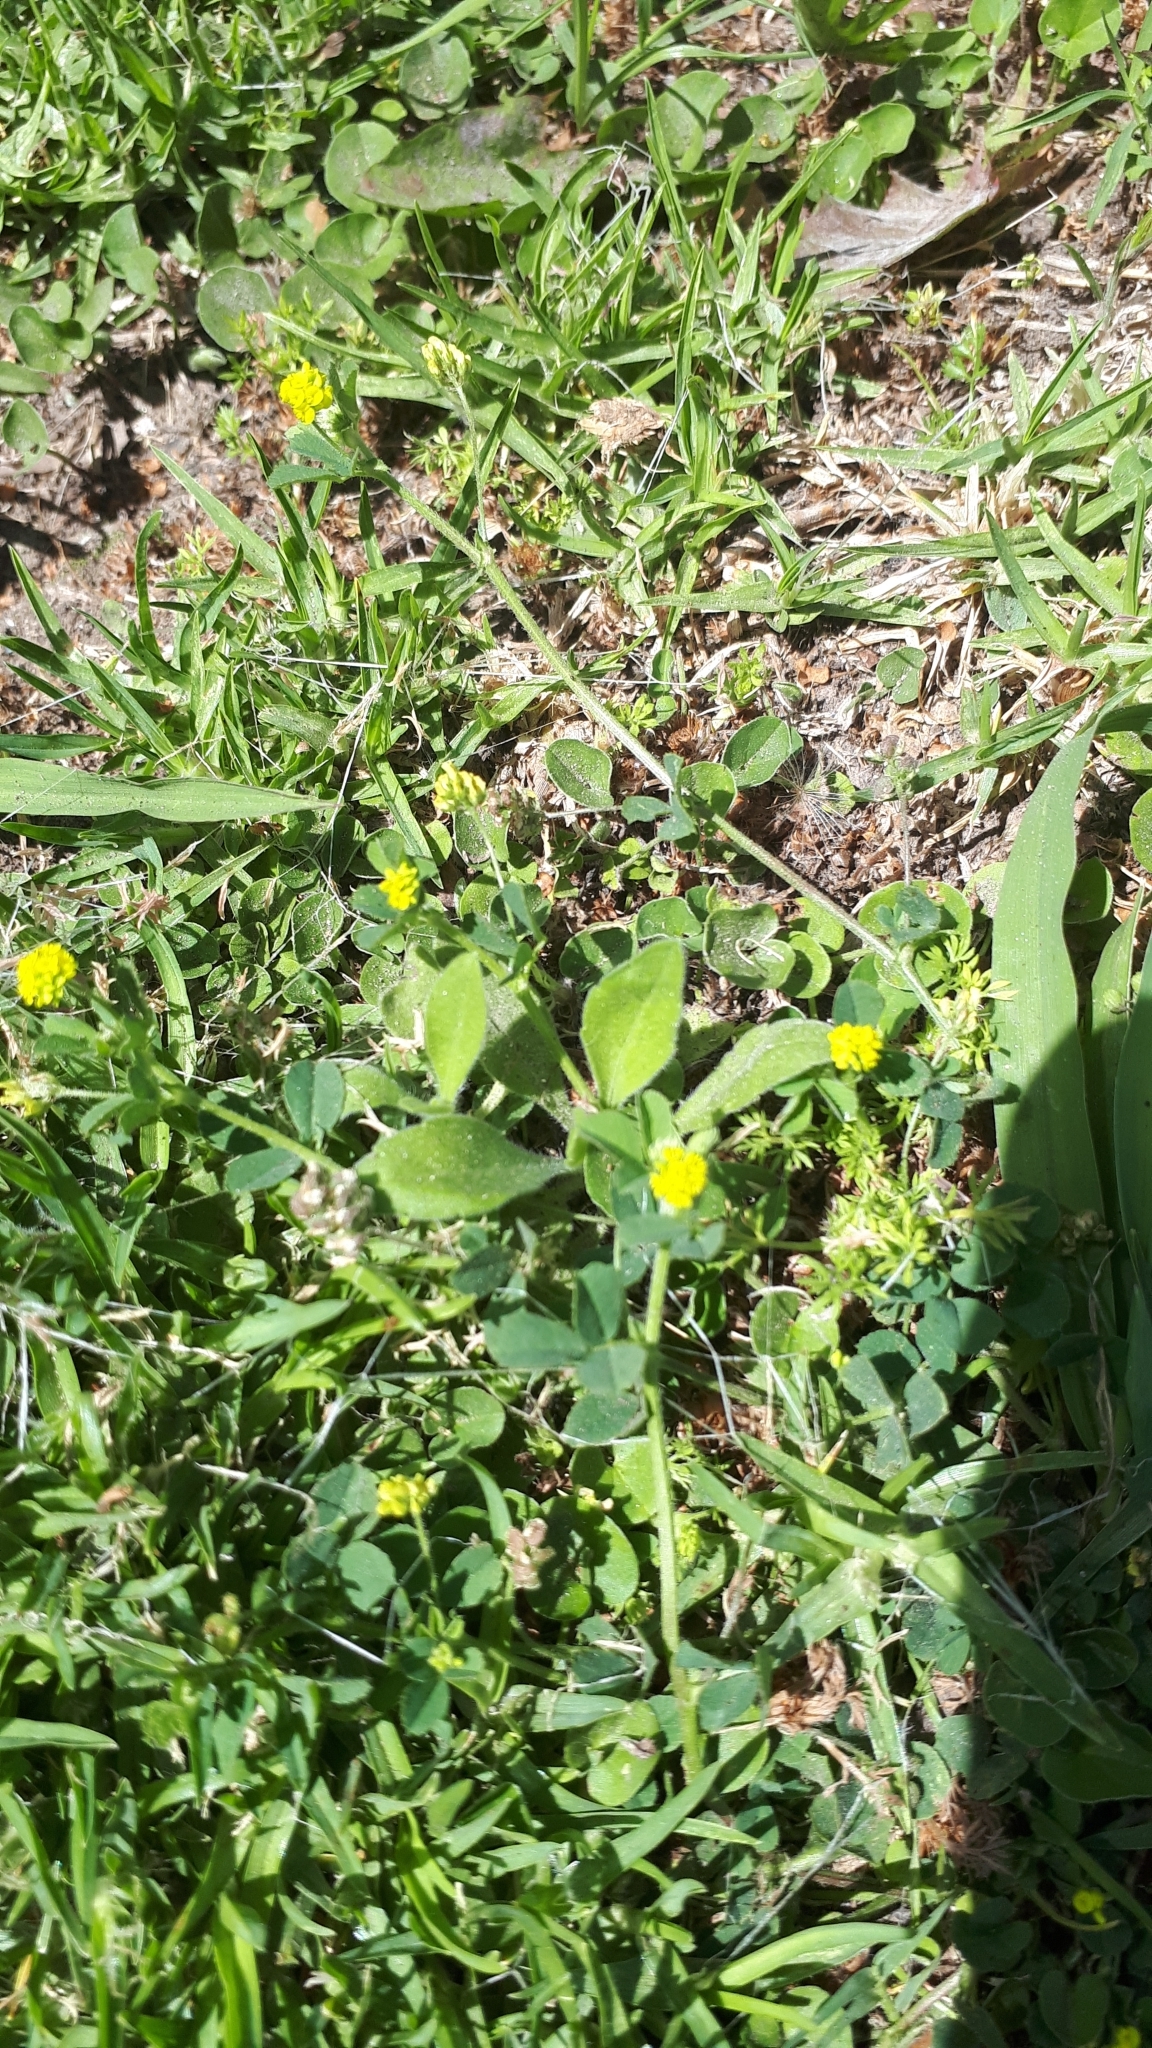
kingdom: Plantae
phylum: Tracheophyta
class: Magnoliopsida
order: Fabales
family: Fabaceae
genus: Medicago
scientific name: Medicago lupulina
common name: Black medick
